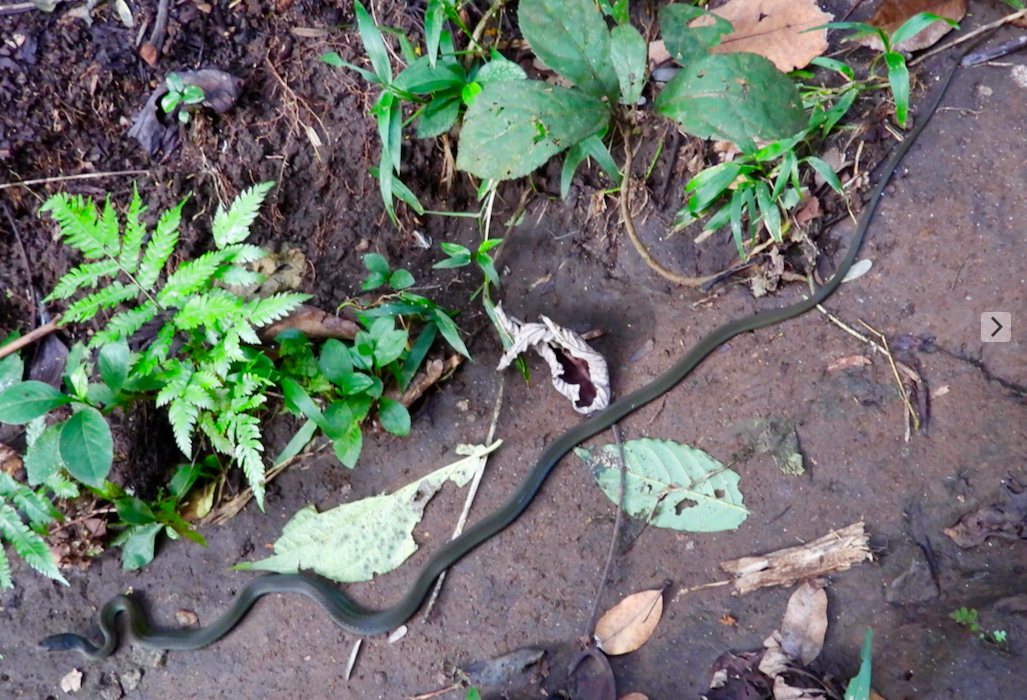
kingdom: Animalia
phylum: Chordata
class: Squamata
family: Colubridae
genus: Mastigodryas
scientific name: Mastigodryas dorsalis
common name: Striped lizard eater
